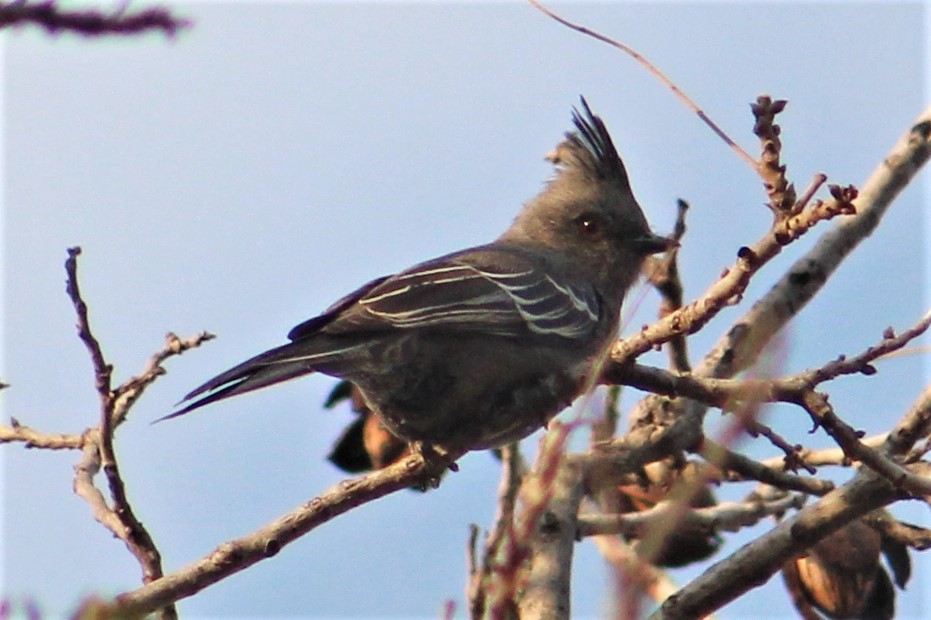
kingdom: Animalia
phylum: Chordata
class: Aves
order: Passeriformes
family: Ptilogonatidae
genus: Phainopepla
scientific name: Phainopepla nitens
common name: Phainopepla
